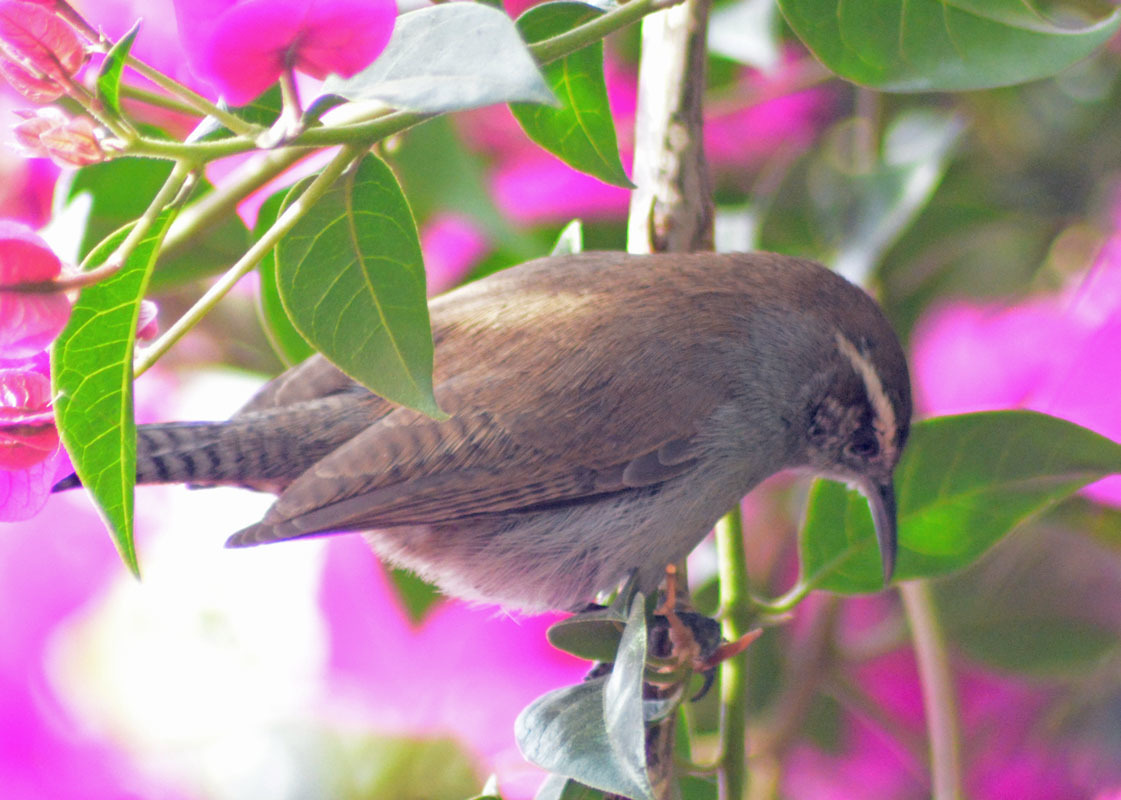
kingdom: Animalia
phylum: Chordata
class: Aves
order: Passeriformes
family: Troglodytidae
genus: Thryomanes
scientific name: Thryomanes bewickii
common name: Bewick's wren
